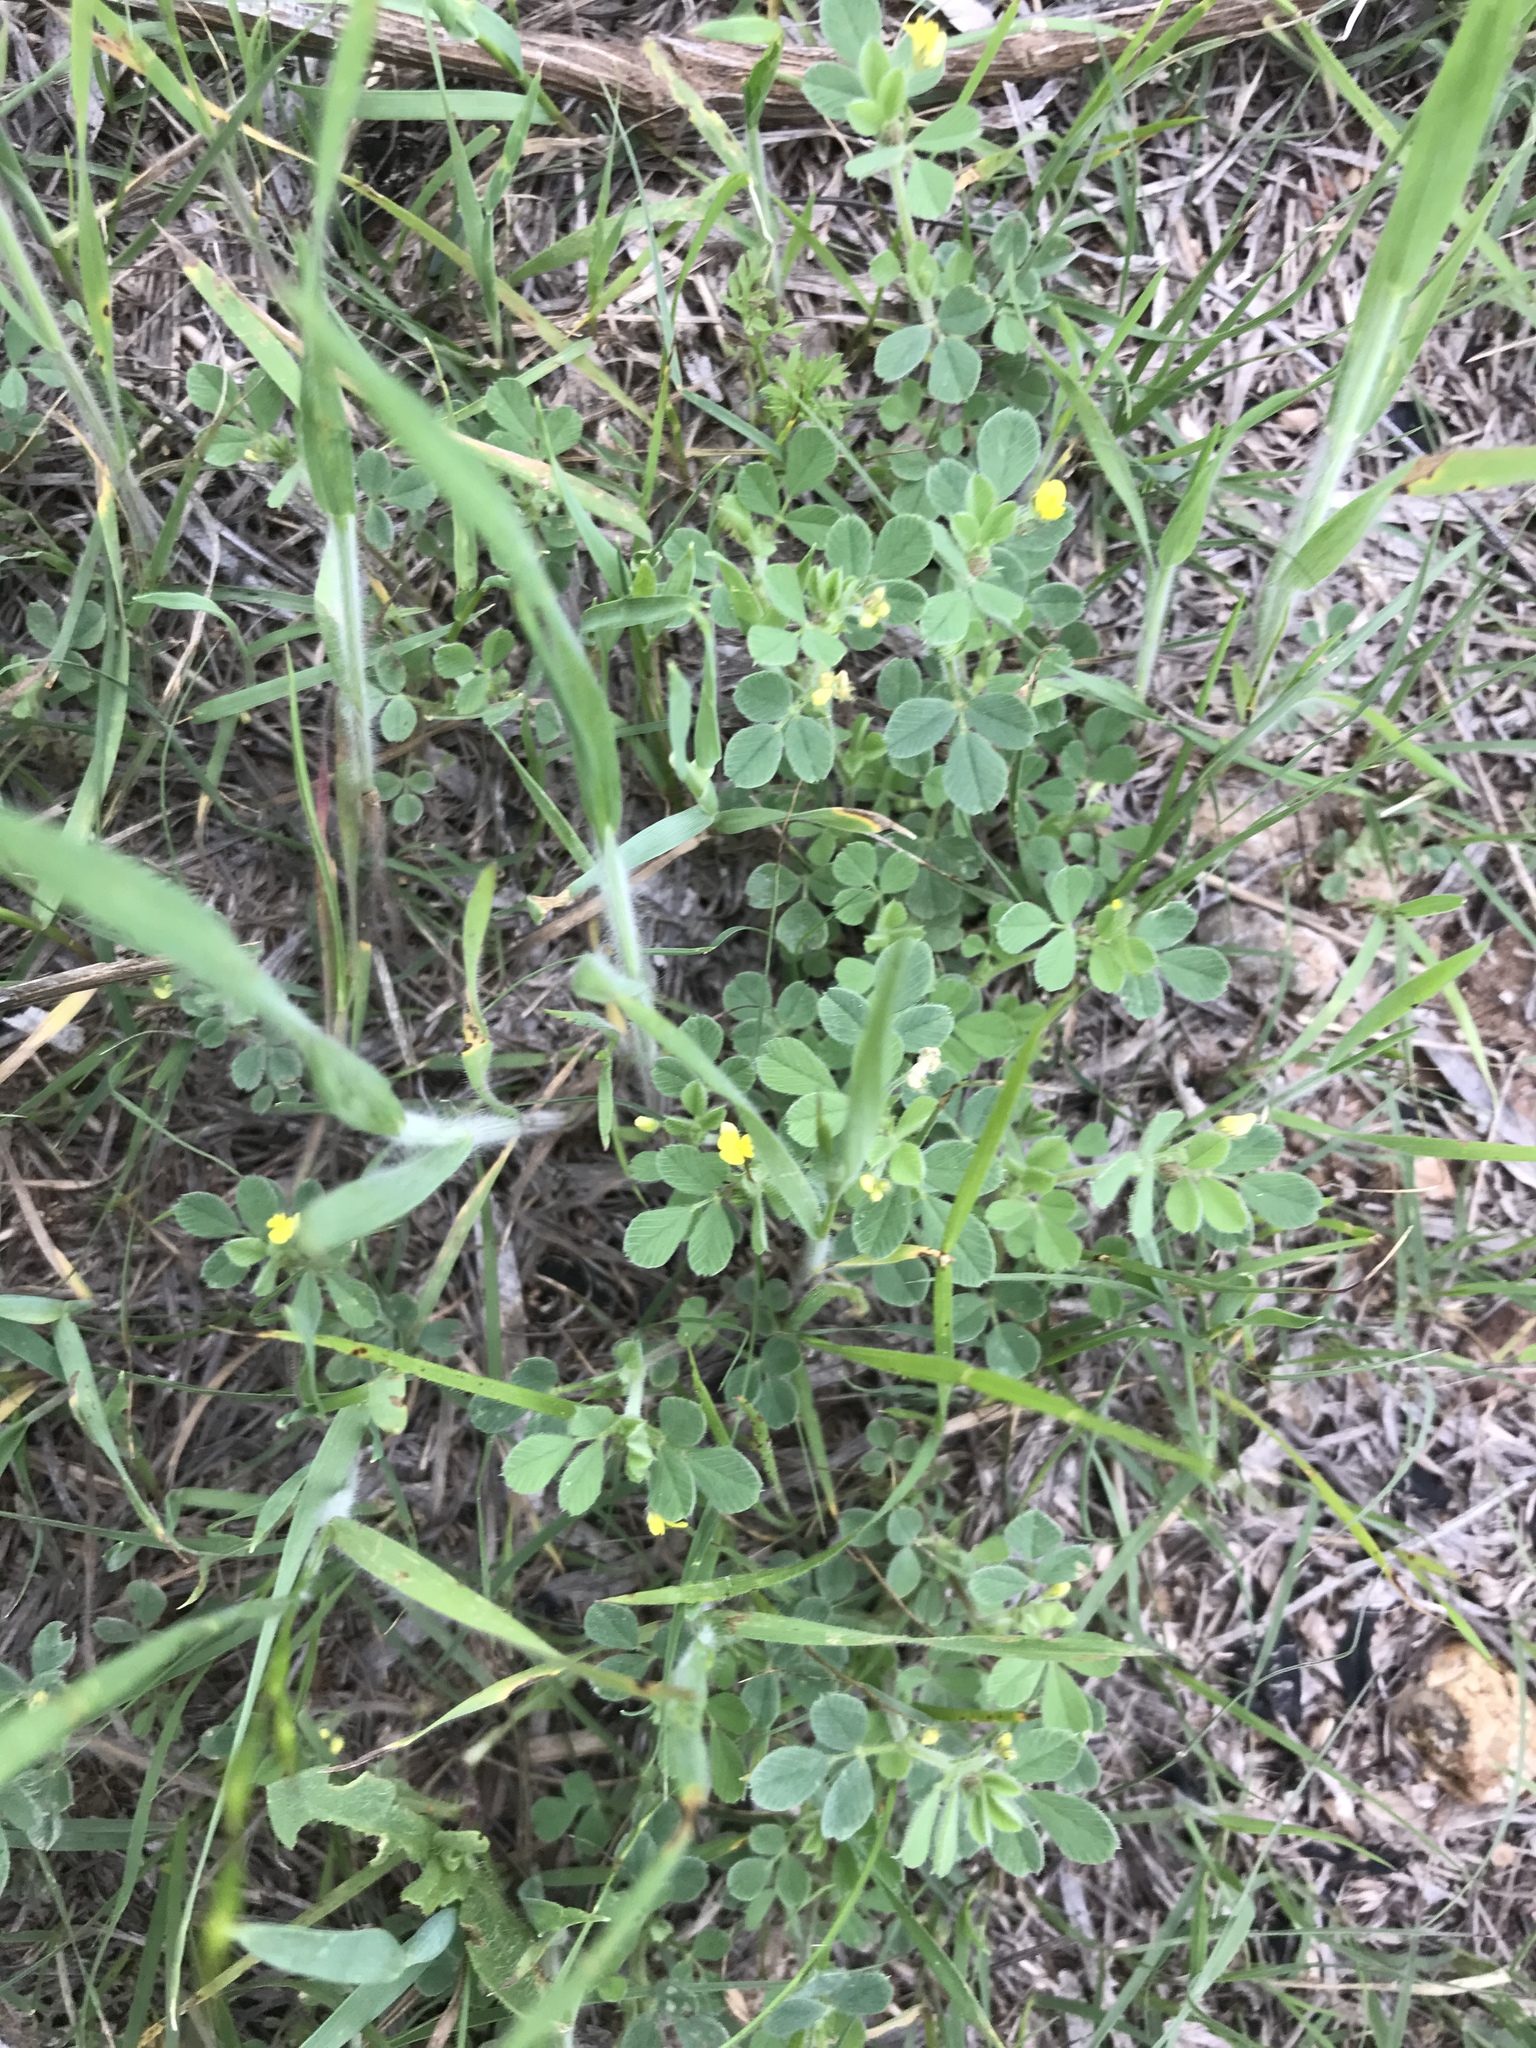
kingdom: Plantae
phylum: Tracheophyta
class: Magnoliopsida
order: Fabales
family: Fabaceae
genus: Medicago
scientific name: Medicago minima
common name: Little bur-clover
